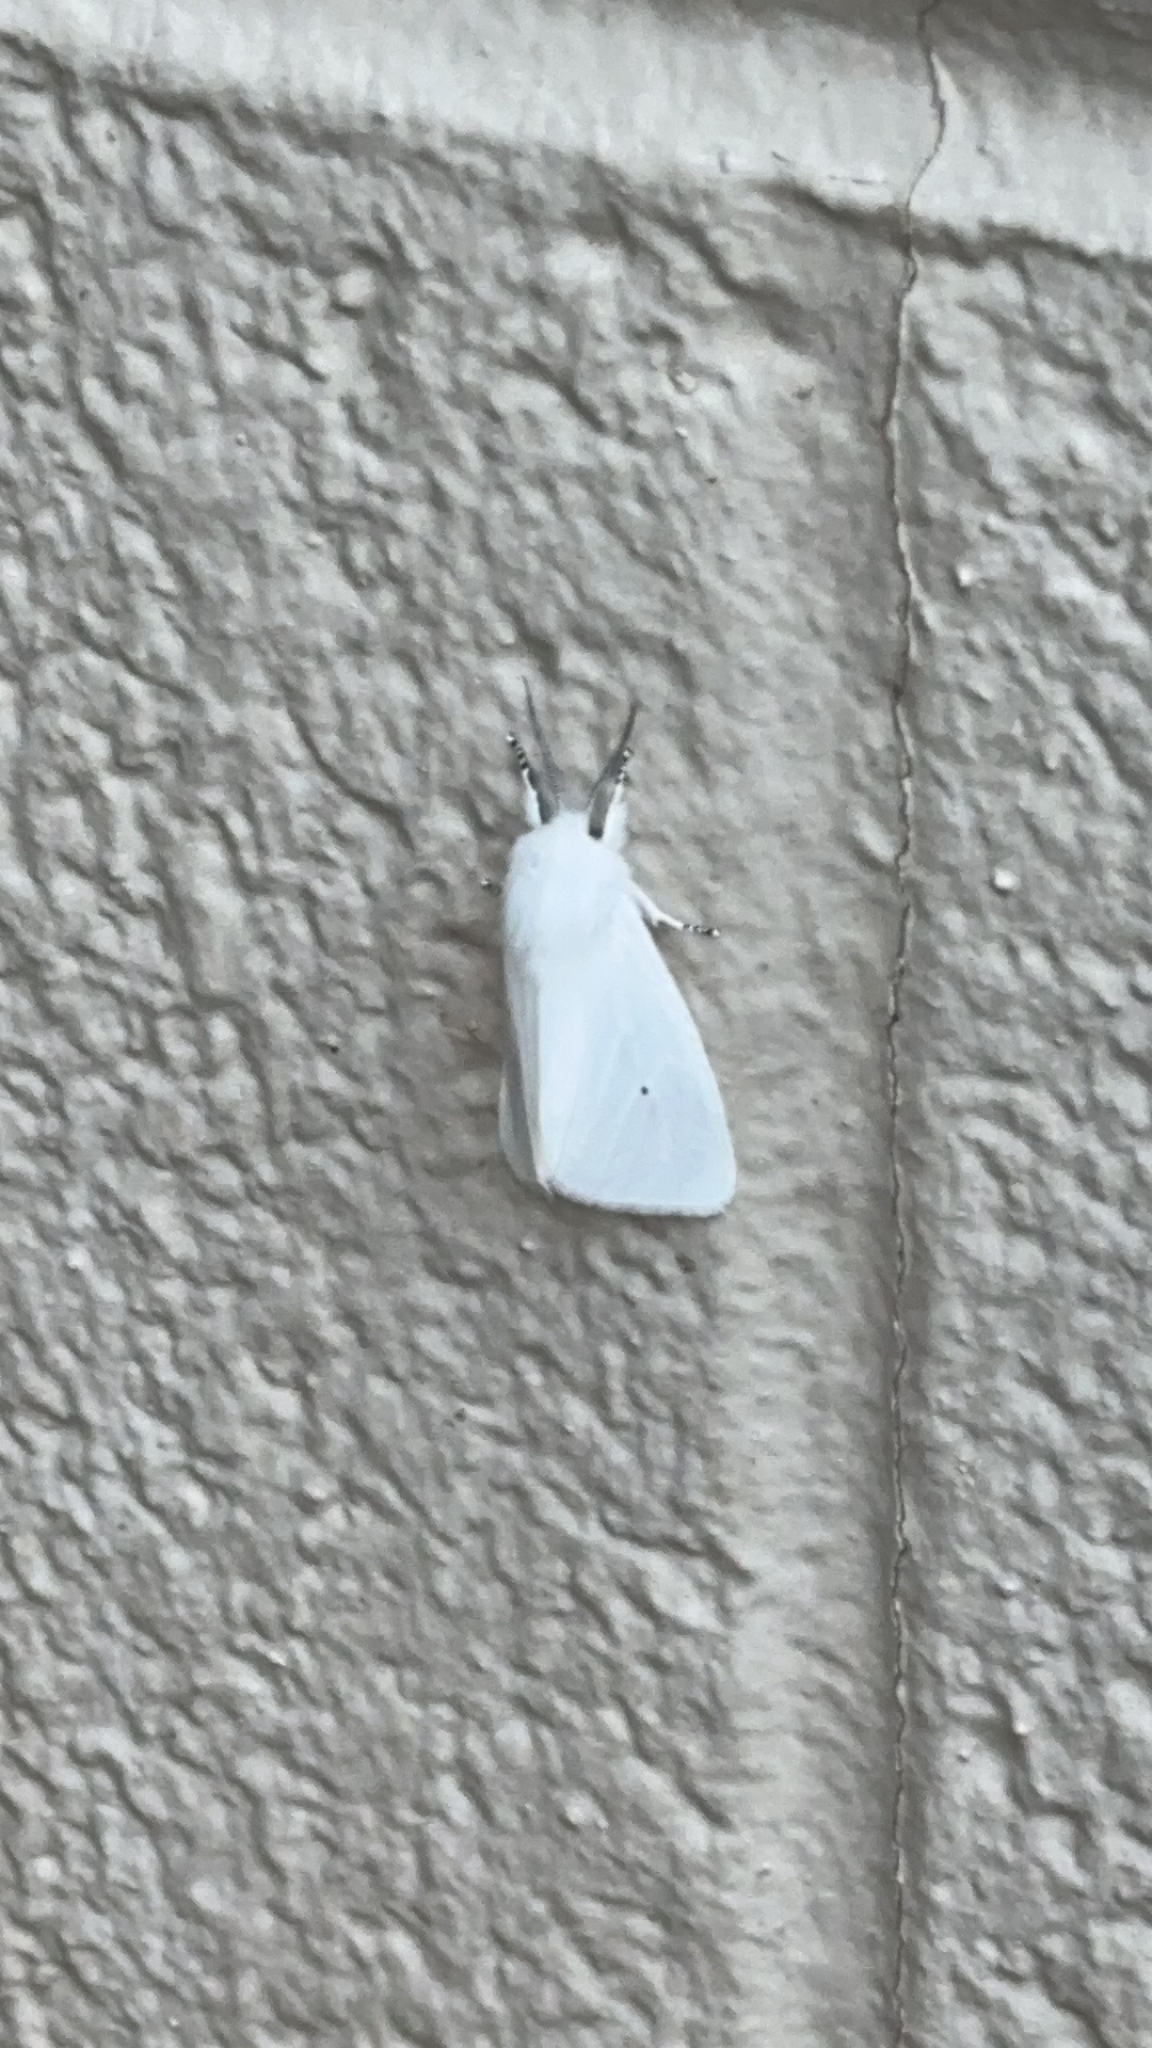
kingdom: Animalia
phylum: Arthropoda
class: Insecta
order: Lepidoptera
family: Erebidae
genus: Spilosoma
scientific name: Spilosoma virginica
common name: Virginia tiger moth
